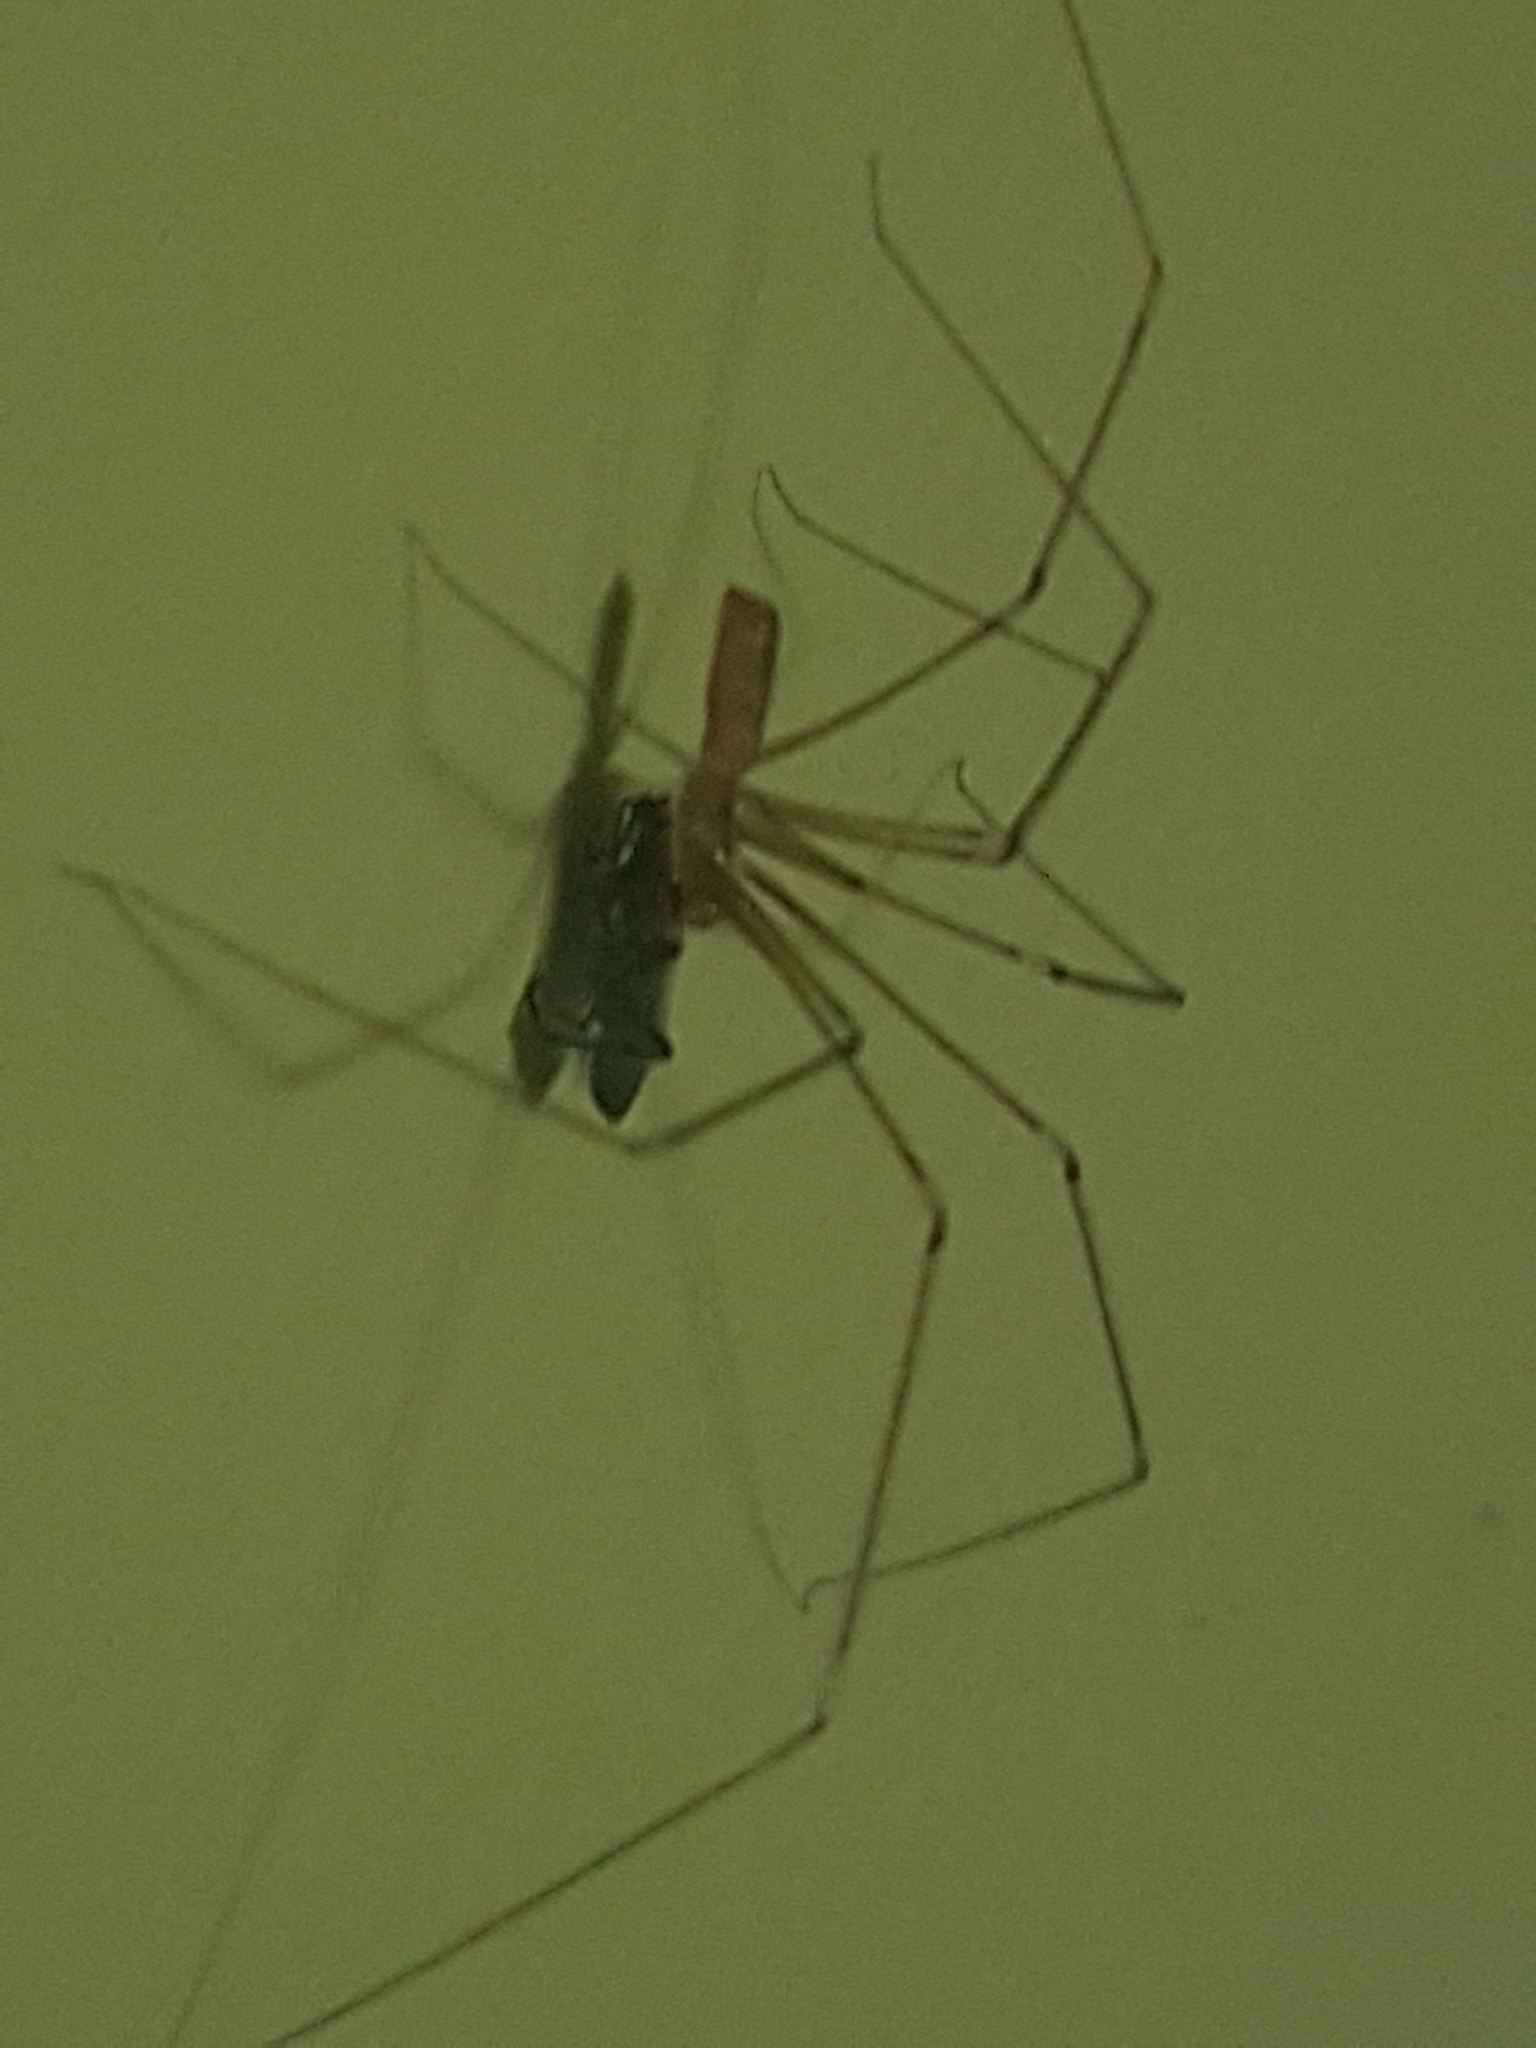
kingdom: Animalia
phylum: Arthropoda
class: Insecta
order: Hemiptera
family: Coreidae
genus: Leptoglossus
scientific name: Leptoglossus occidentalis
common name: Western conifer-seed bug
